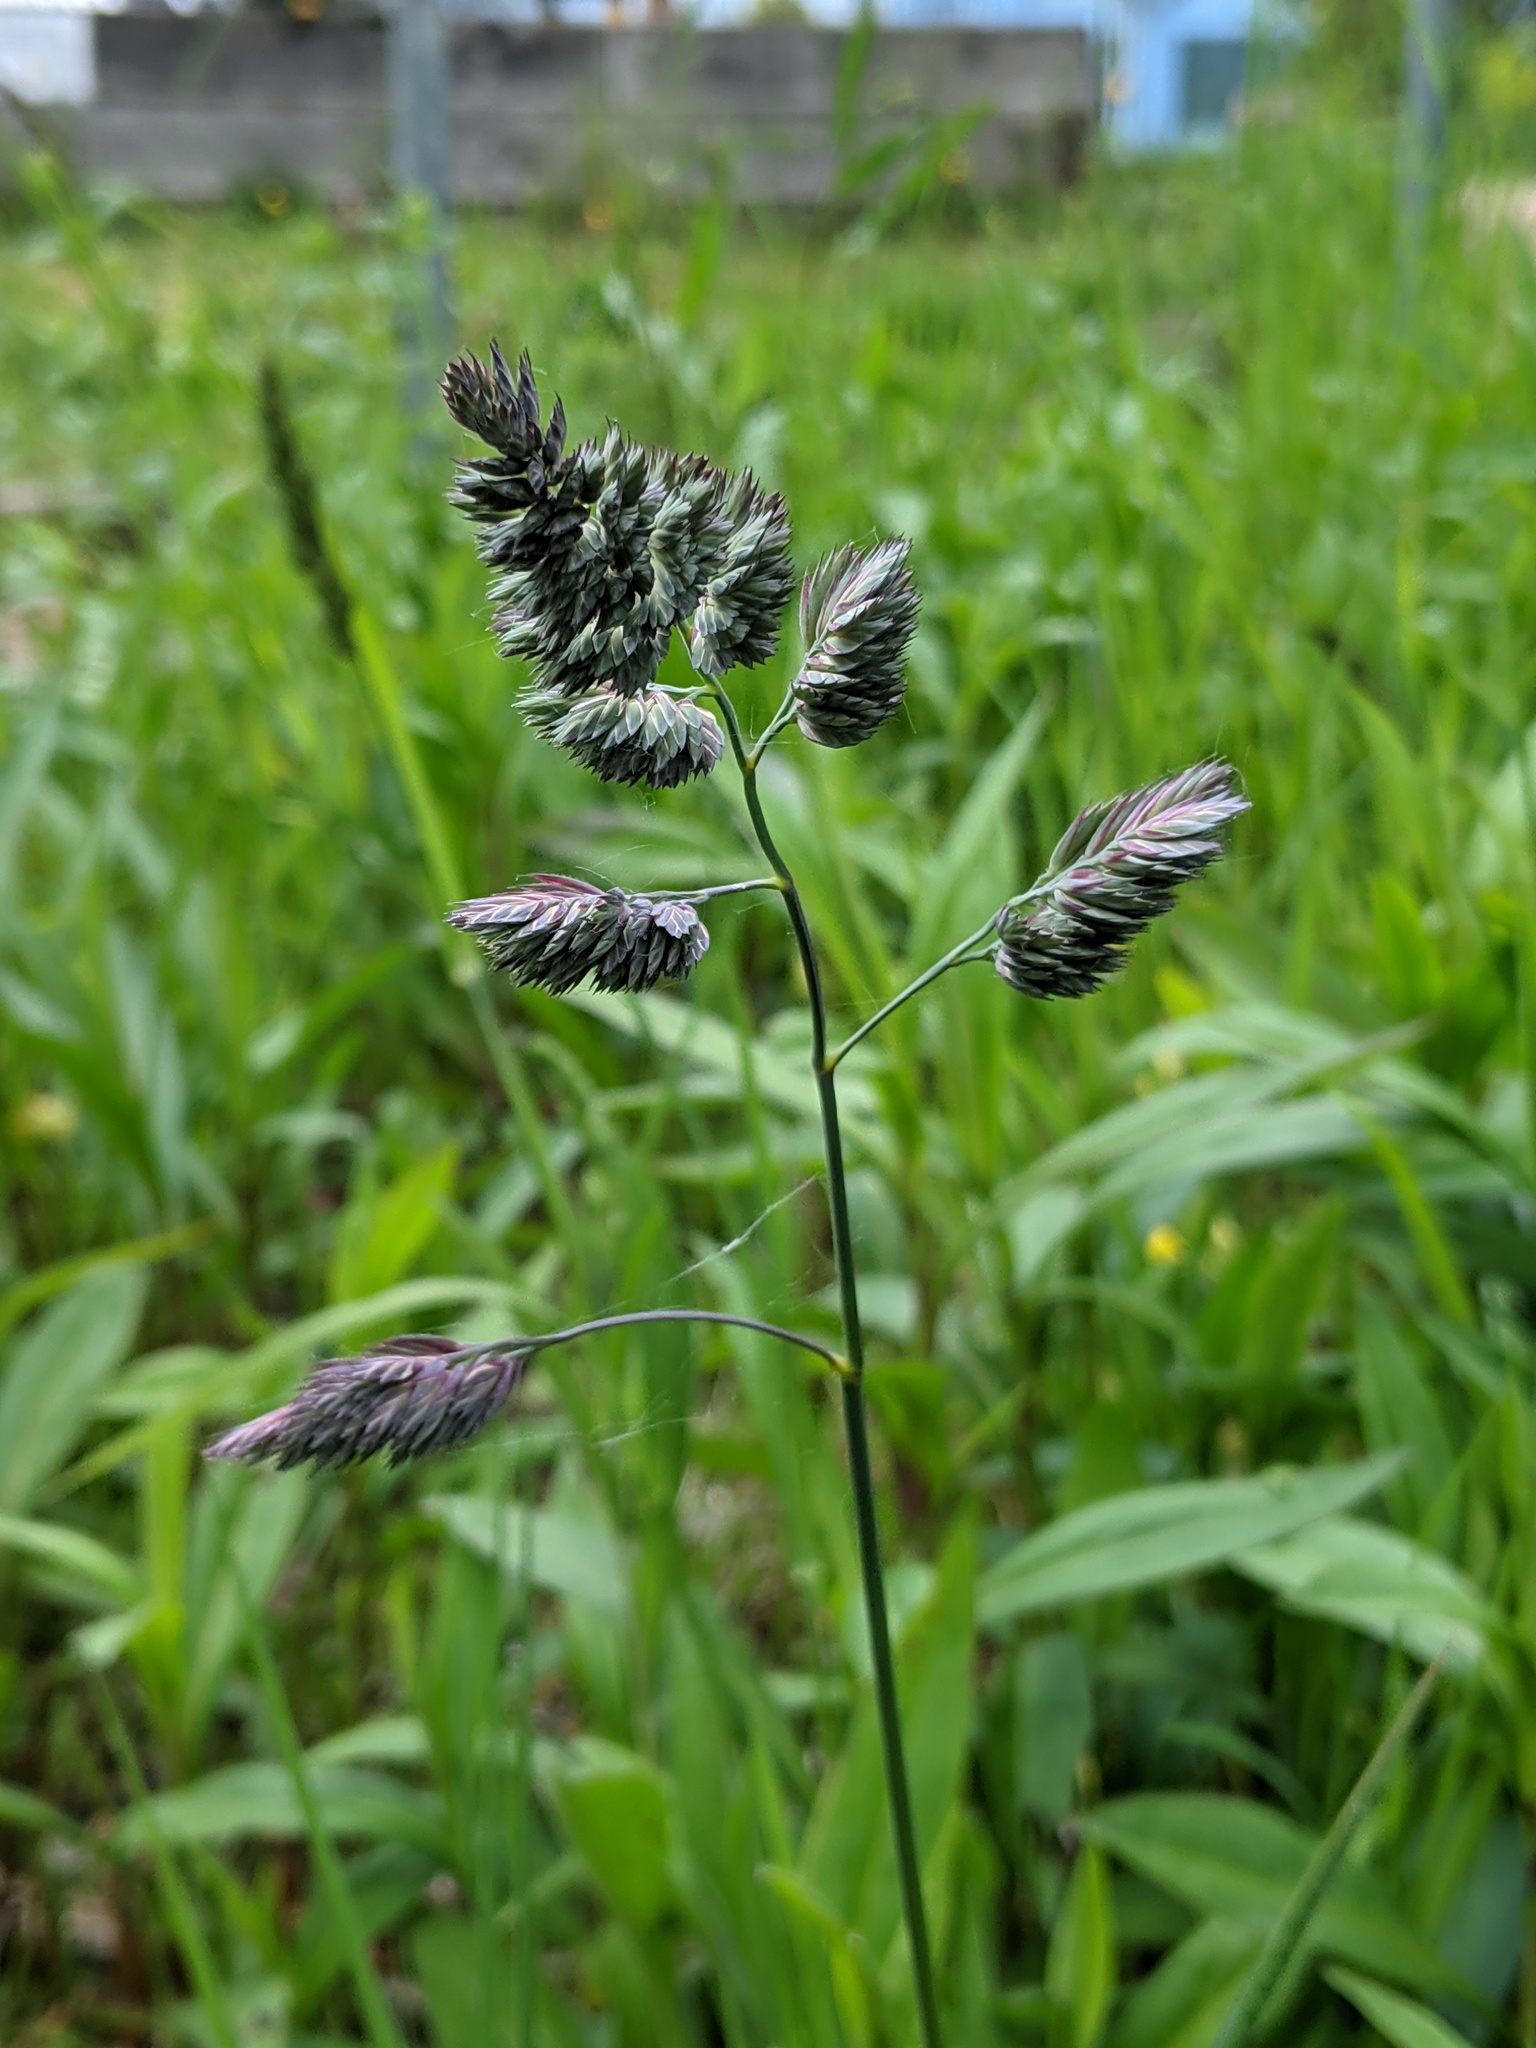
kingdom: Plantae
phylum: Tracheophyta
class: Liliopsida
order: Poales
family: Poaceae
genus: Dactylis
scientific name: Dactylis glomerata
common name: Orchardgrass
